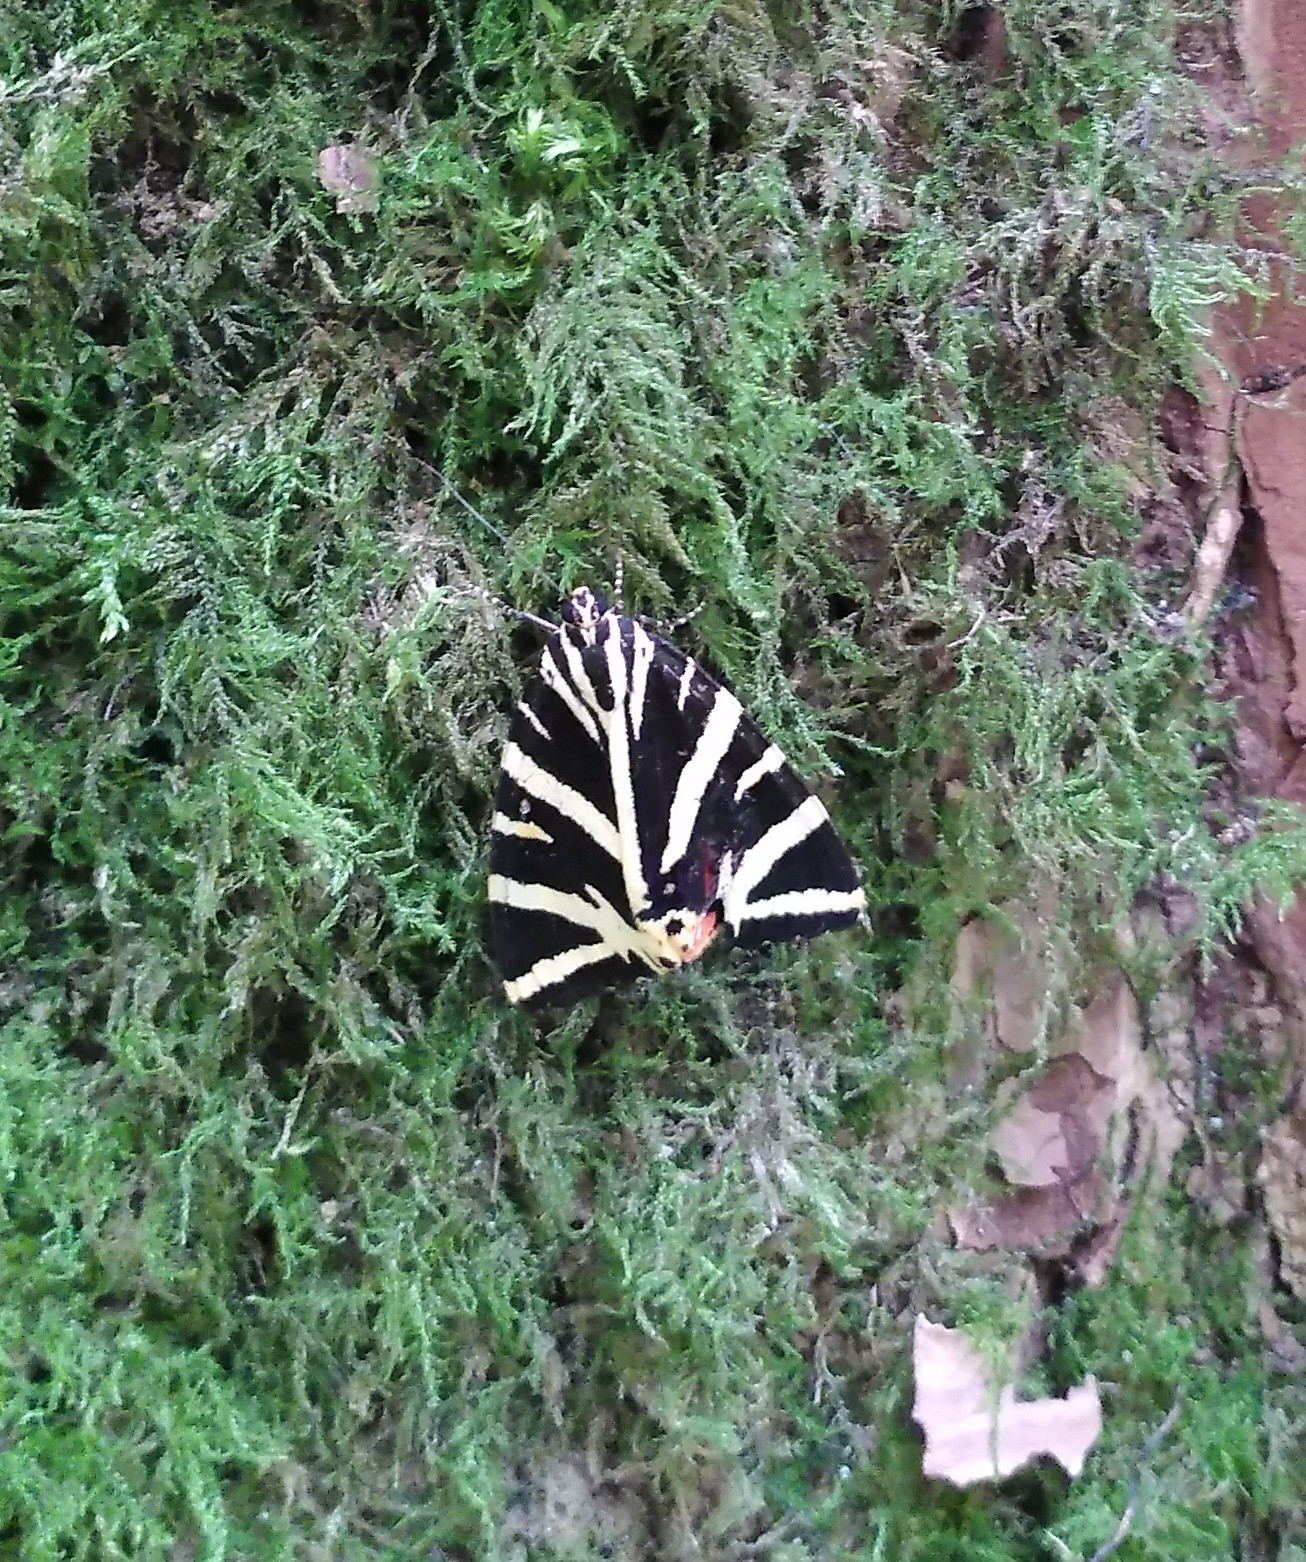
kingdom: Animalia
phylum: Arthropoda
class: Insecta
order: Lepidoptera
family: Erebidae
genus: Euplagia
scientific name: Euplagia quadripunctaria
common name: Jersey tiger
